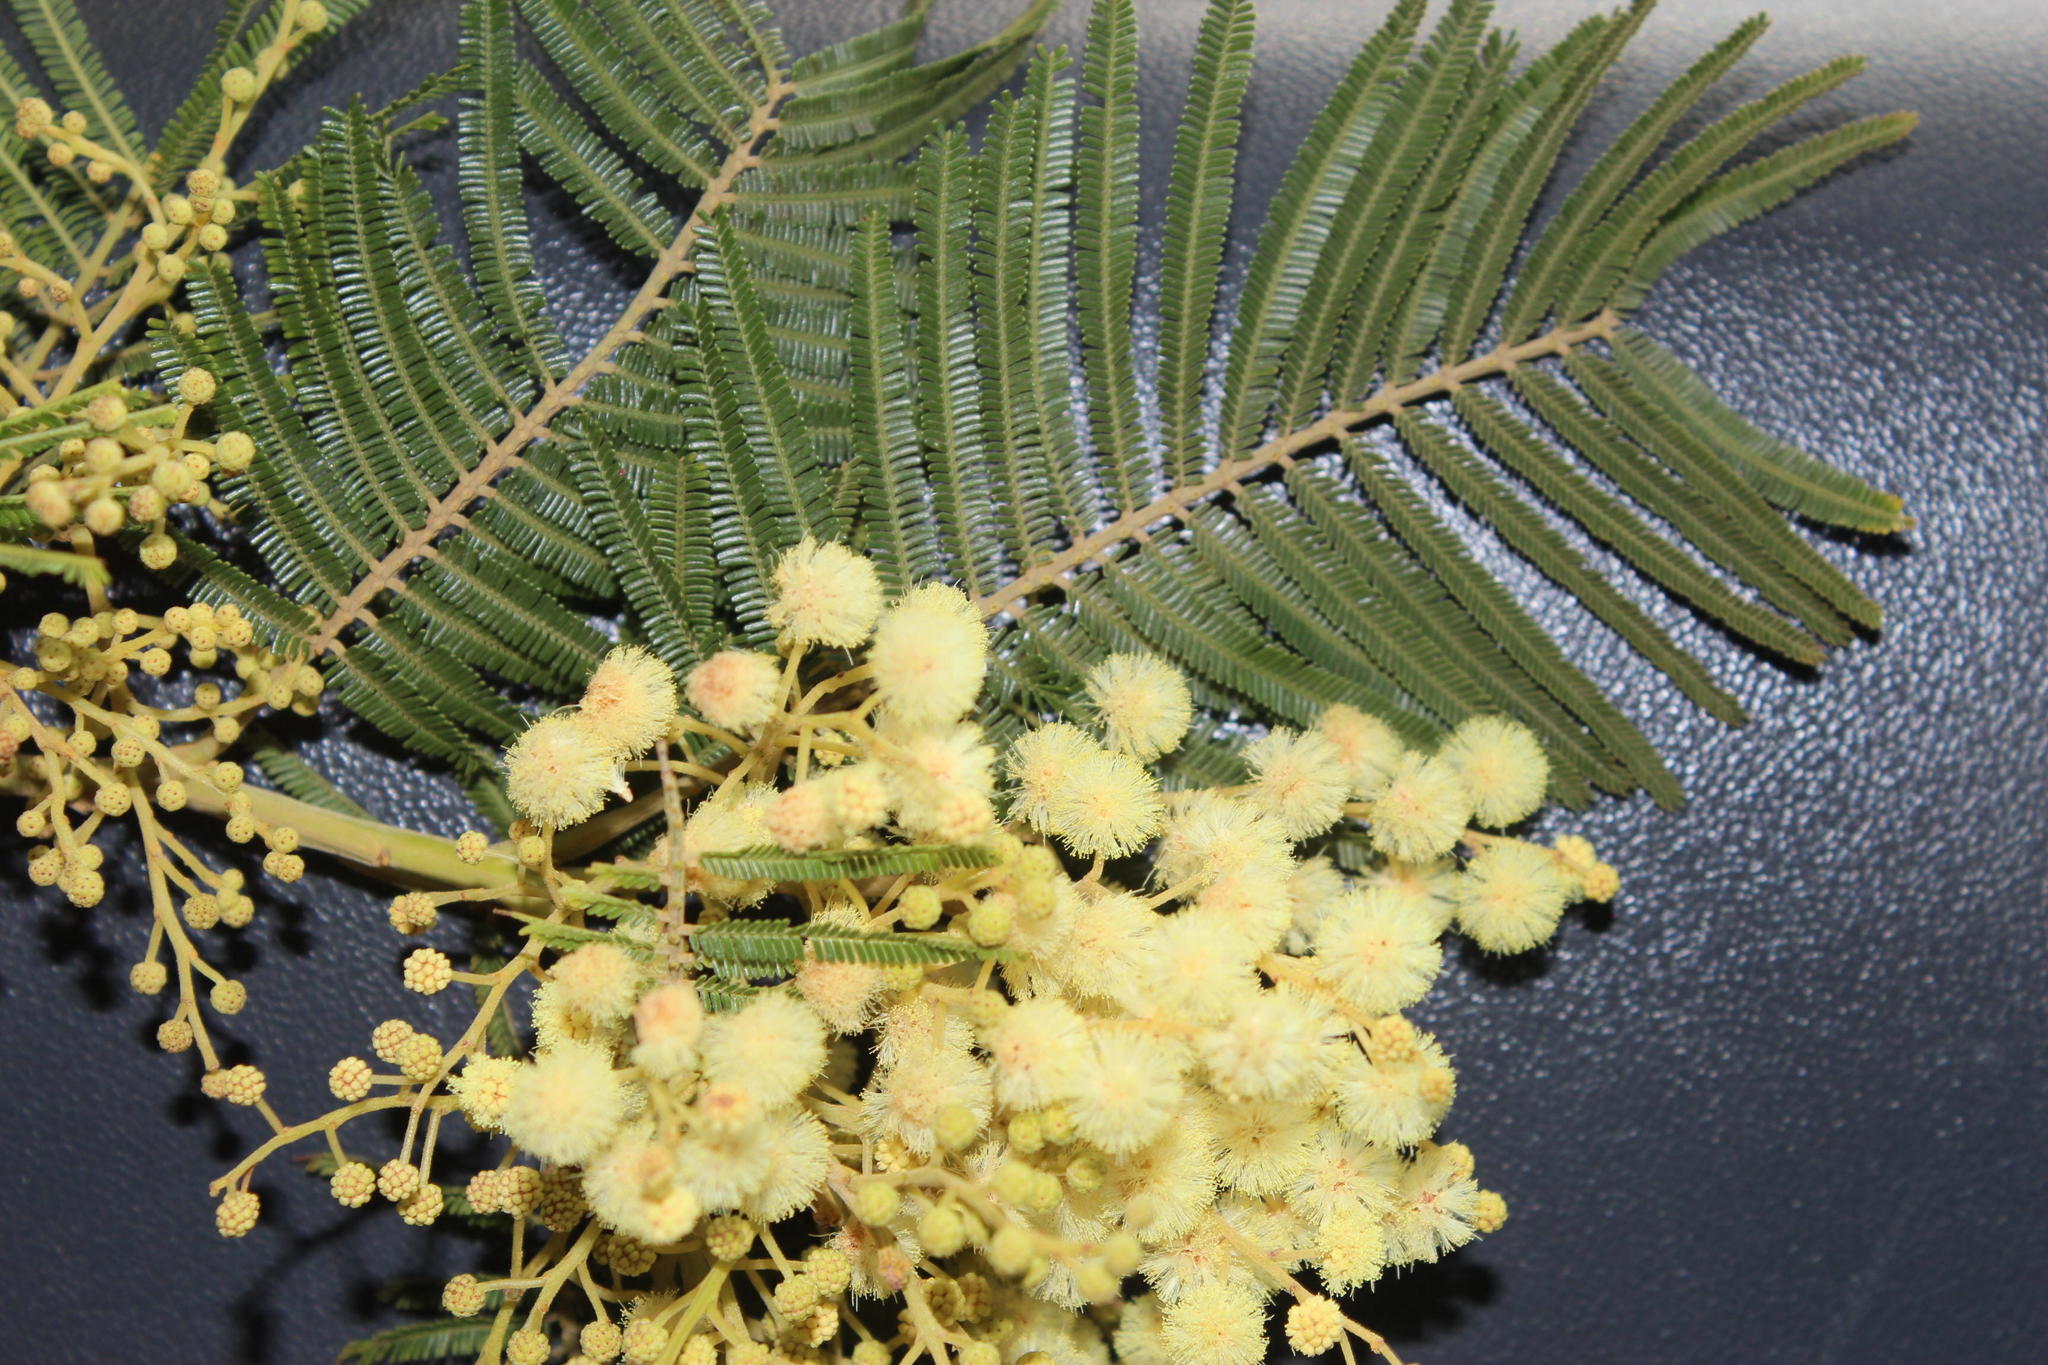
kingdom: Plantae
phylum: Tracheophyta
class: Magnoliopsida
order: Fabales
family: Fabaceae
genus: Acacia
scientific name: Acacia mearnsii
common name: Black wattle
